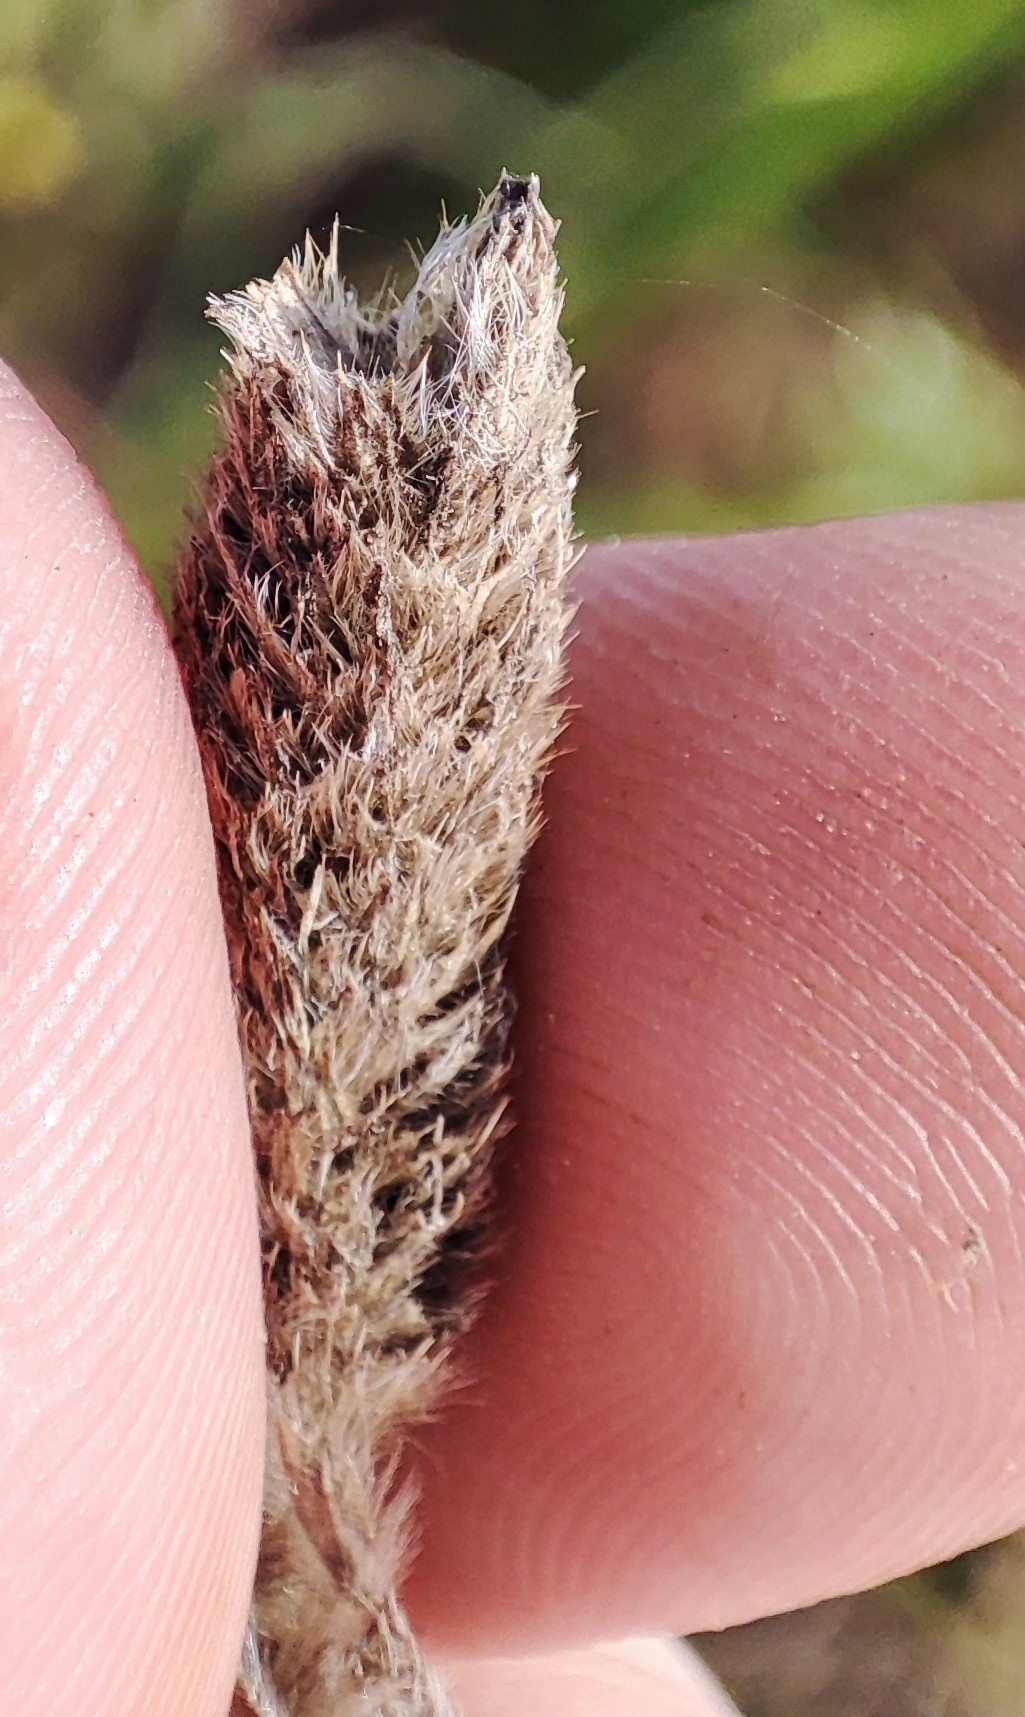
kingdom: Plantae
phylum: Tracheophyta
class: Liliopsida
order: Poales
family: Poaceae
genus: Alopecurus
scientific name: Alopecurus arundinaceus
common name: Creeping meadow foxtail
